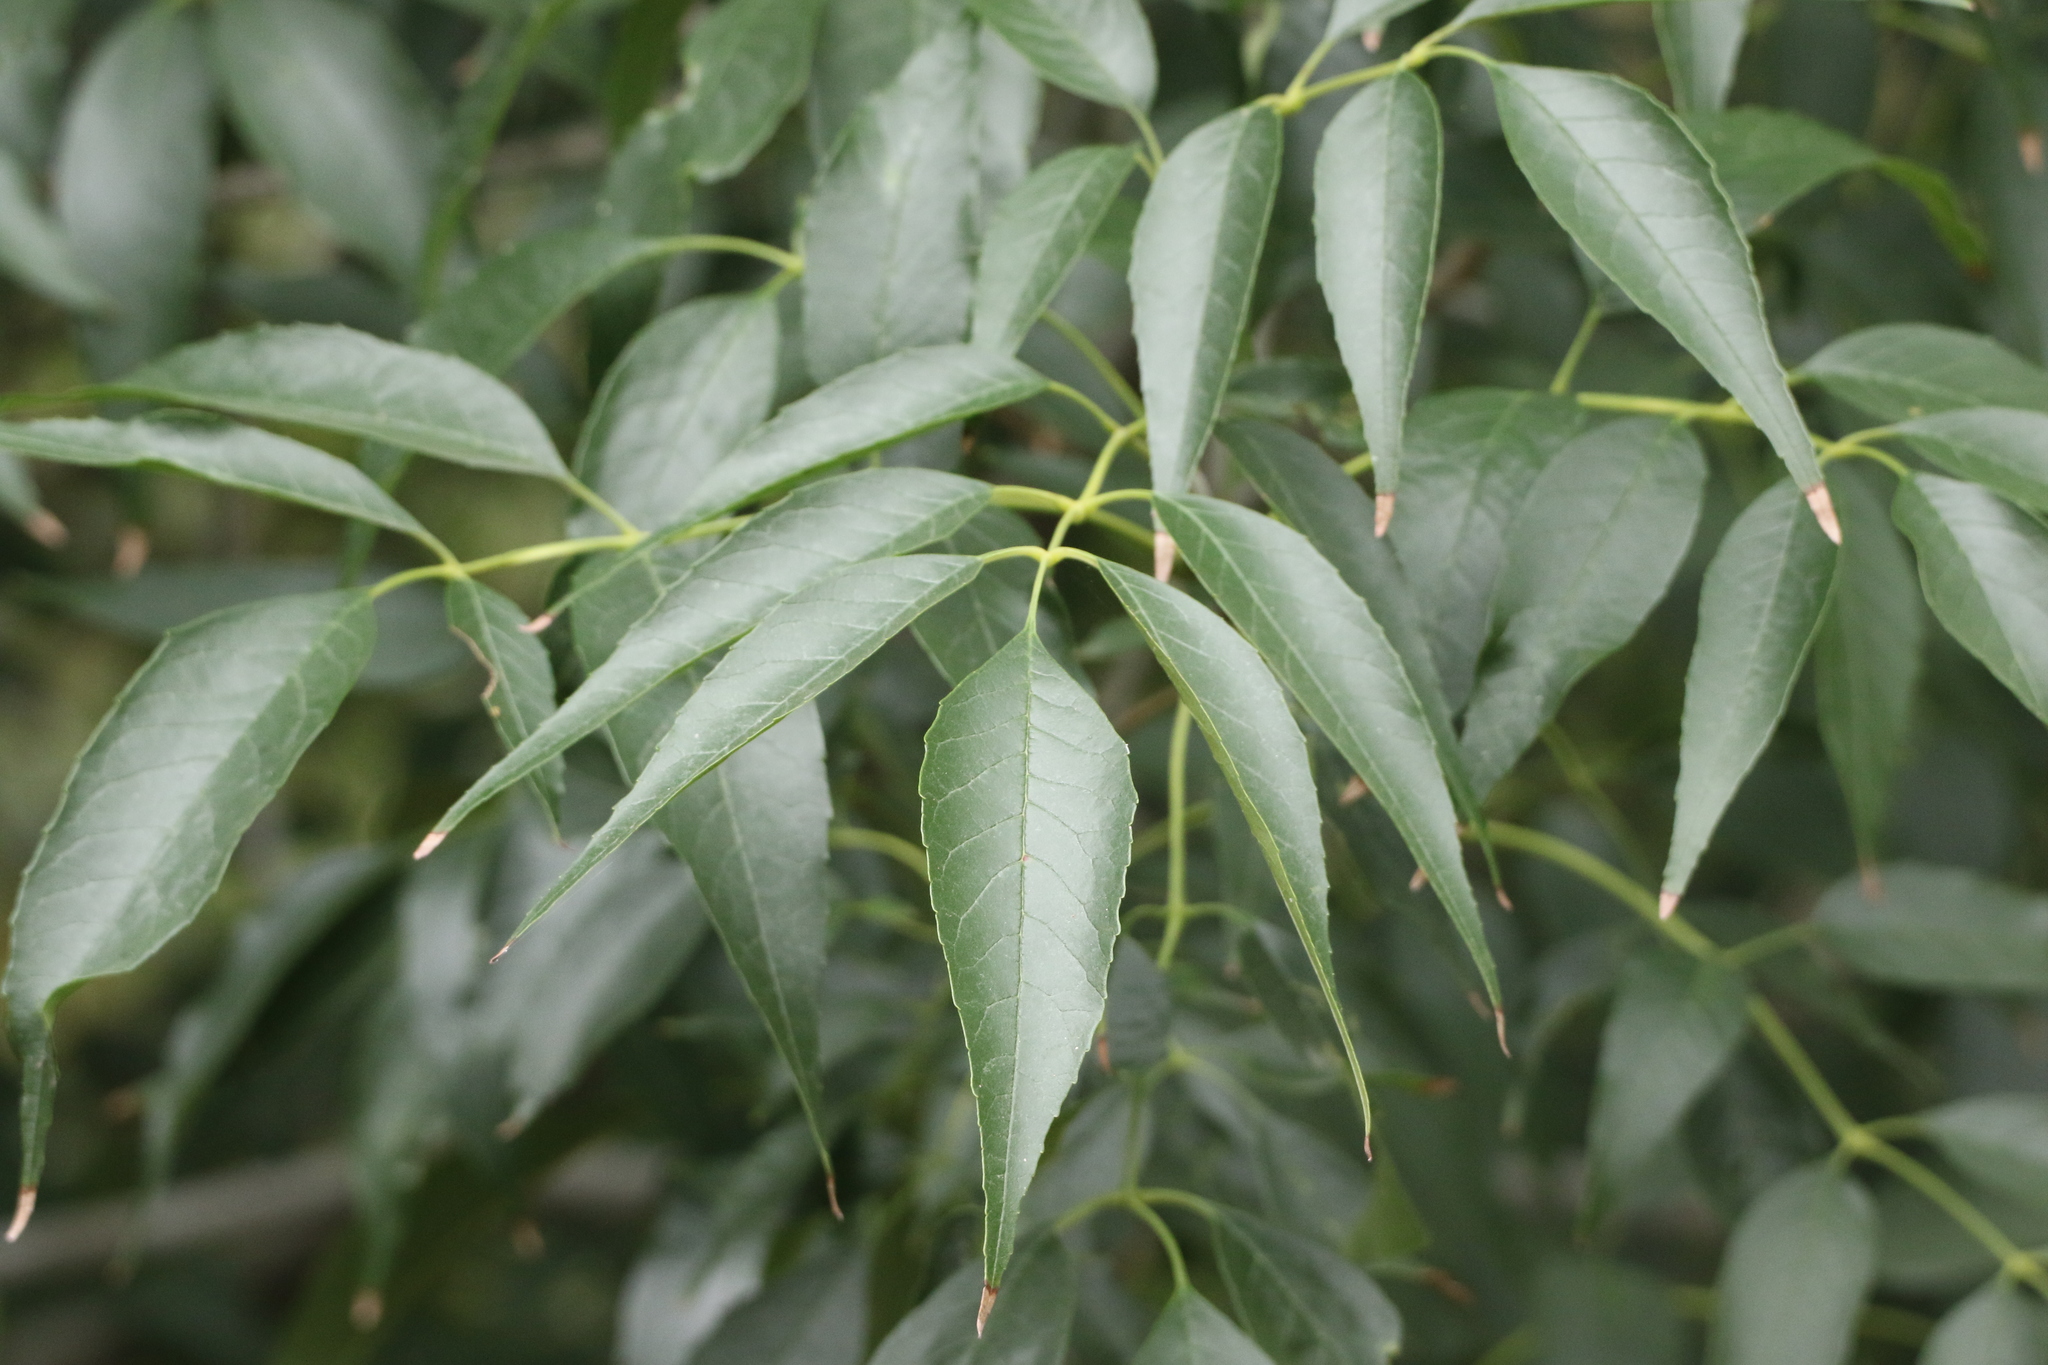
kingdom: Plantae
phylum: Tracheophyta
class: Magnoliopsida
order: Fagales
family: Juglandaceae
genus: Carya
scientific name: Carya illinoinensis
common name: Pecan
